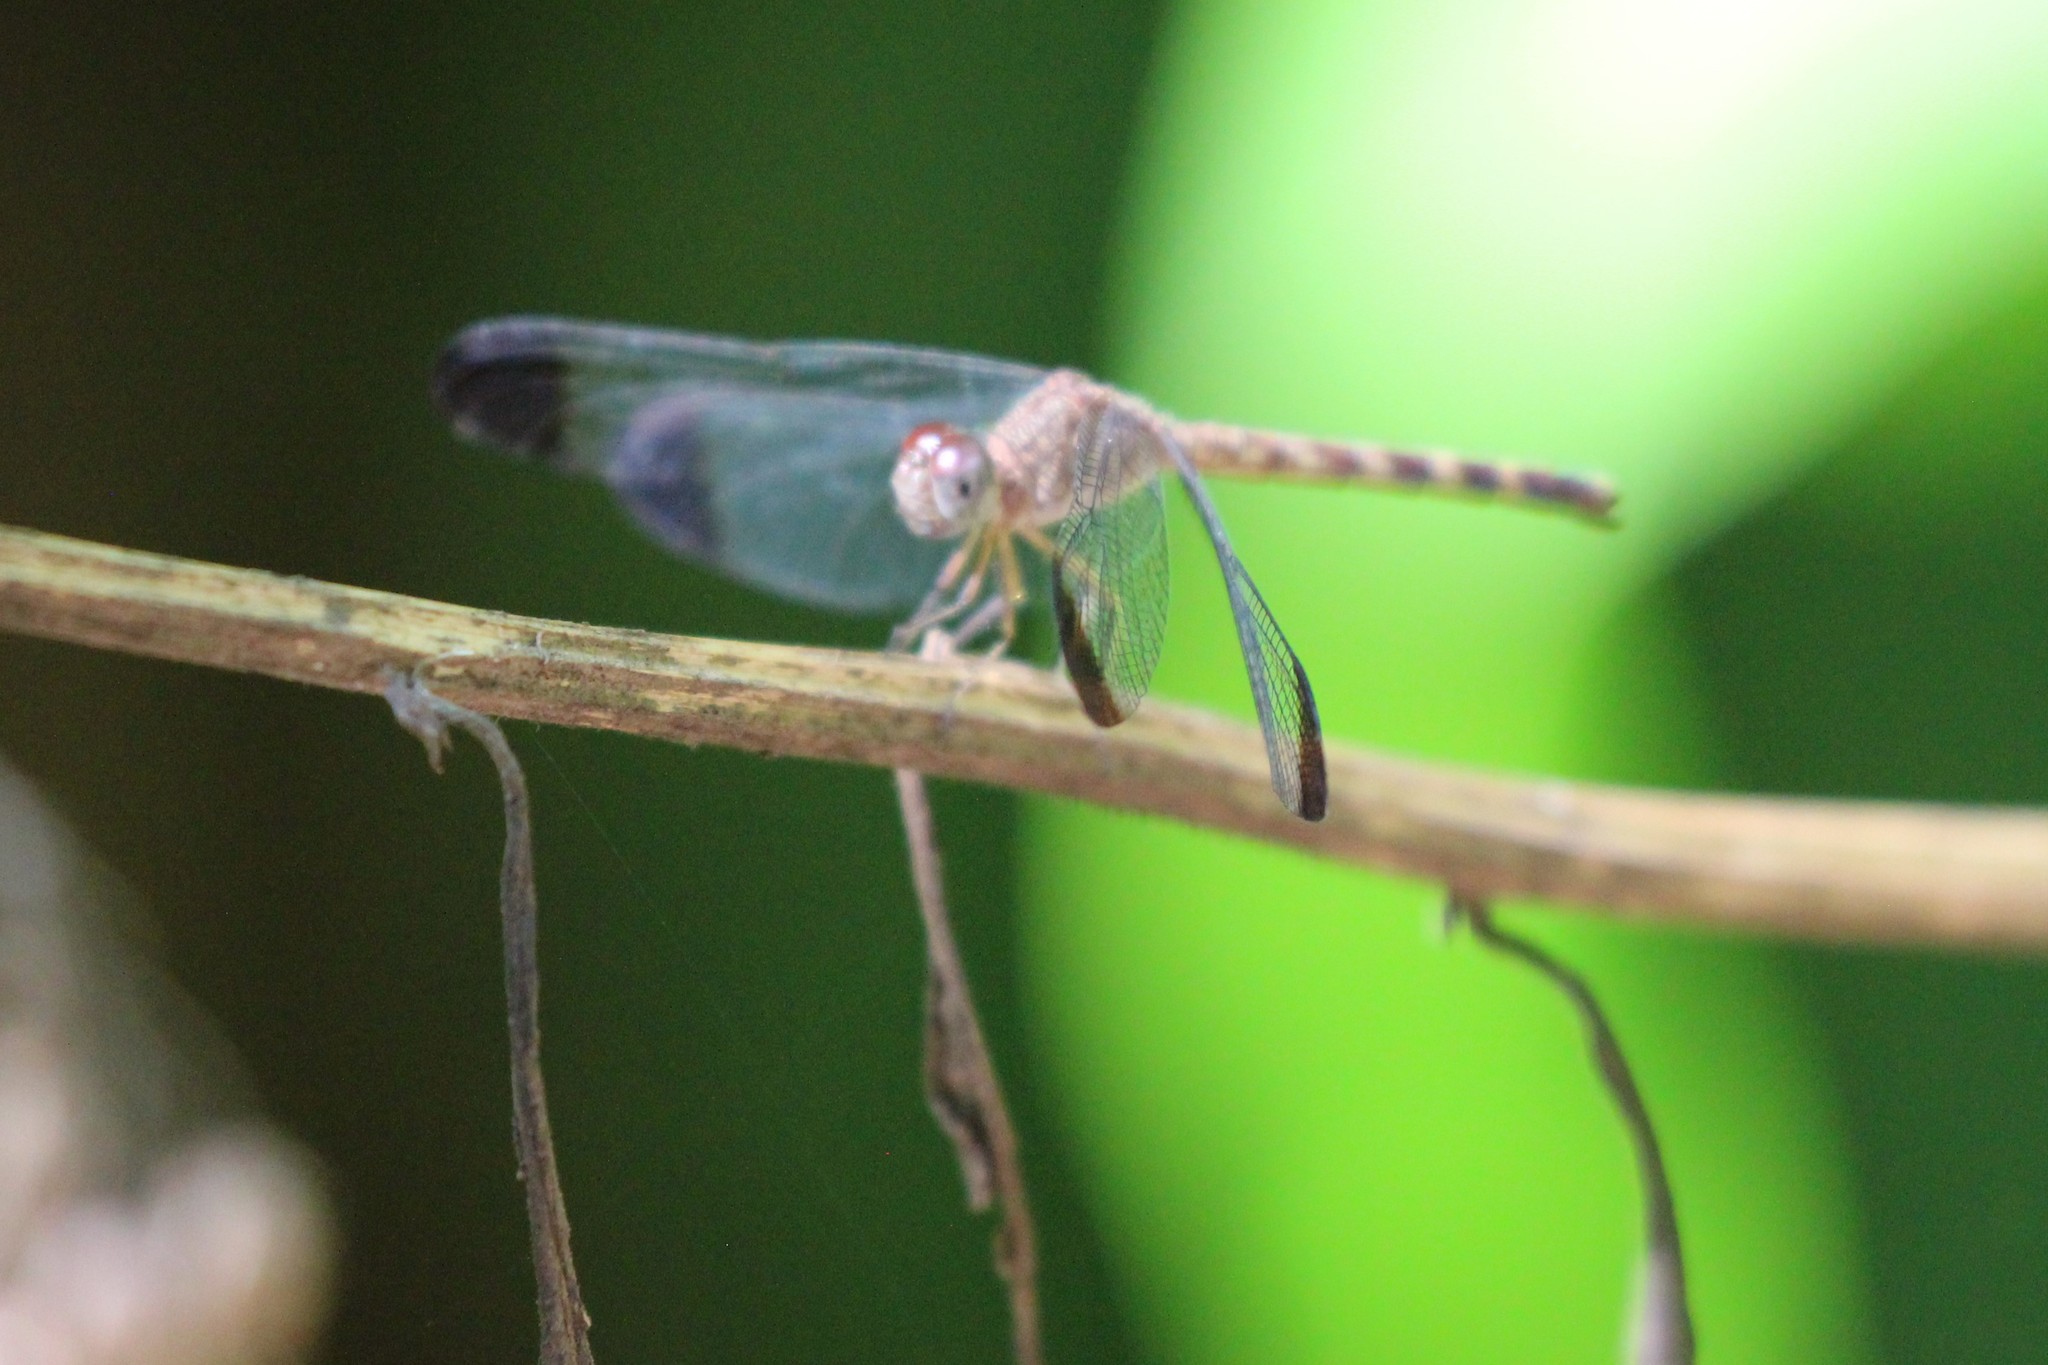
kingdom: Animalia
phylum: Arthropoda
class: Insecta
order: Odonata
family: Libellulidae
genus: Uracis
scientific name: Uracis imbuta
